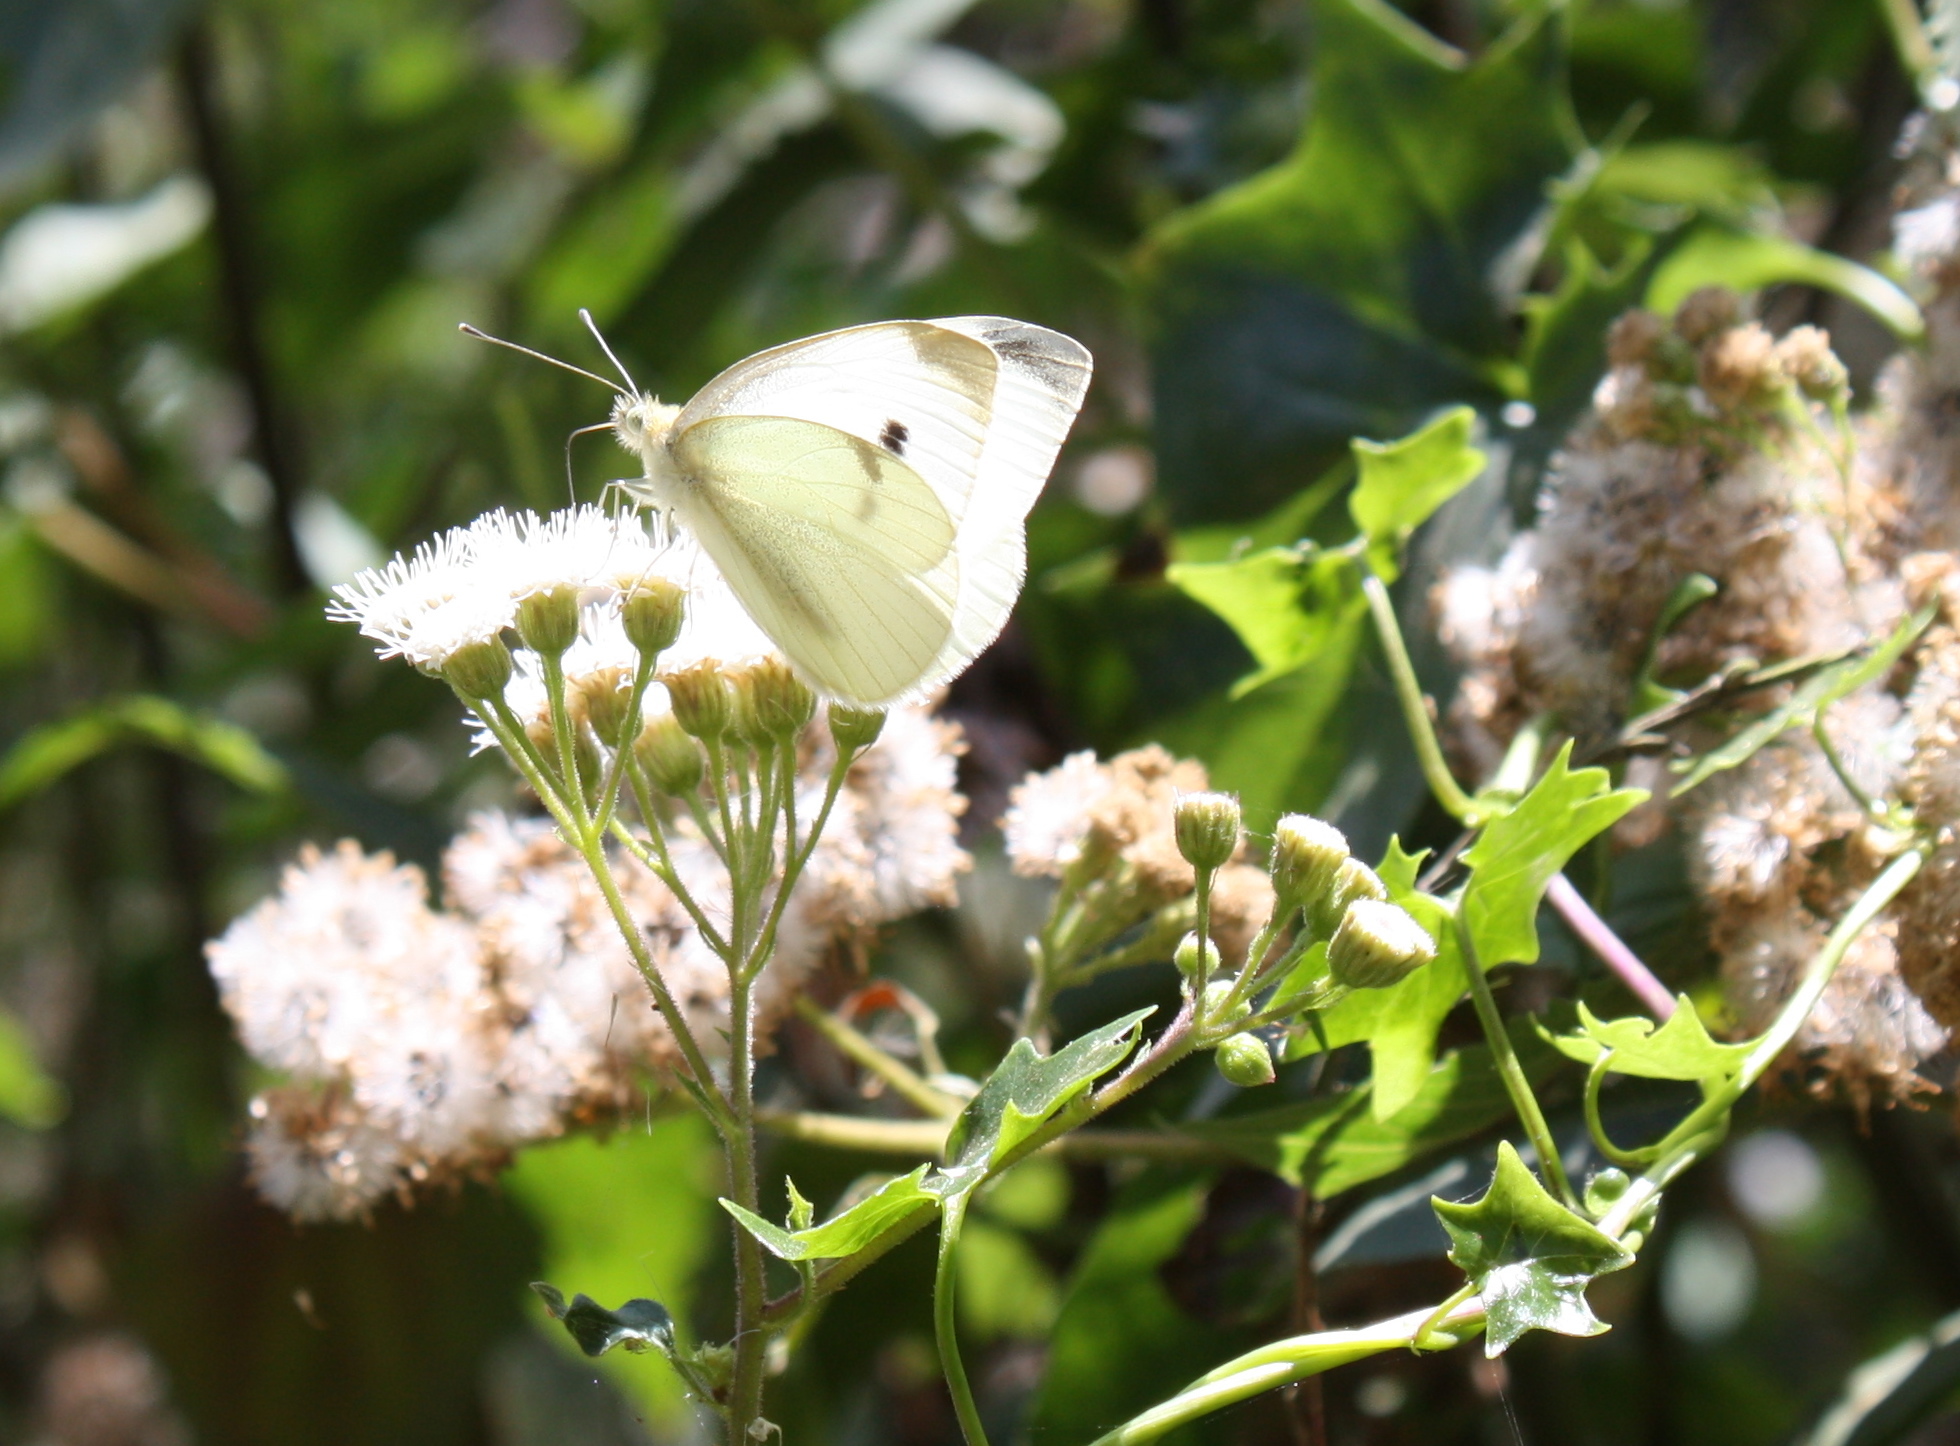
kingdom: Animalia
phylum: Arthropoda
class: Insecta
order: Lepidoptera
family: Pieridae
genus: Pieris
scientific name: Pieris rapae
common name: Small white
